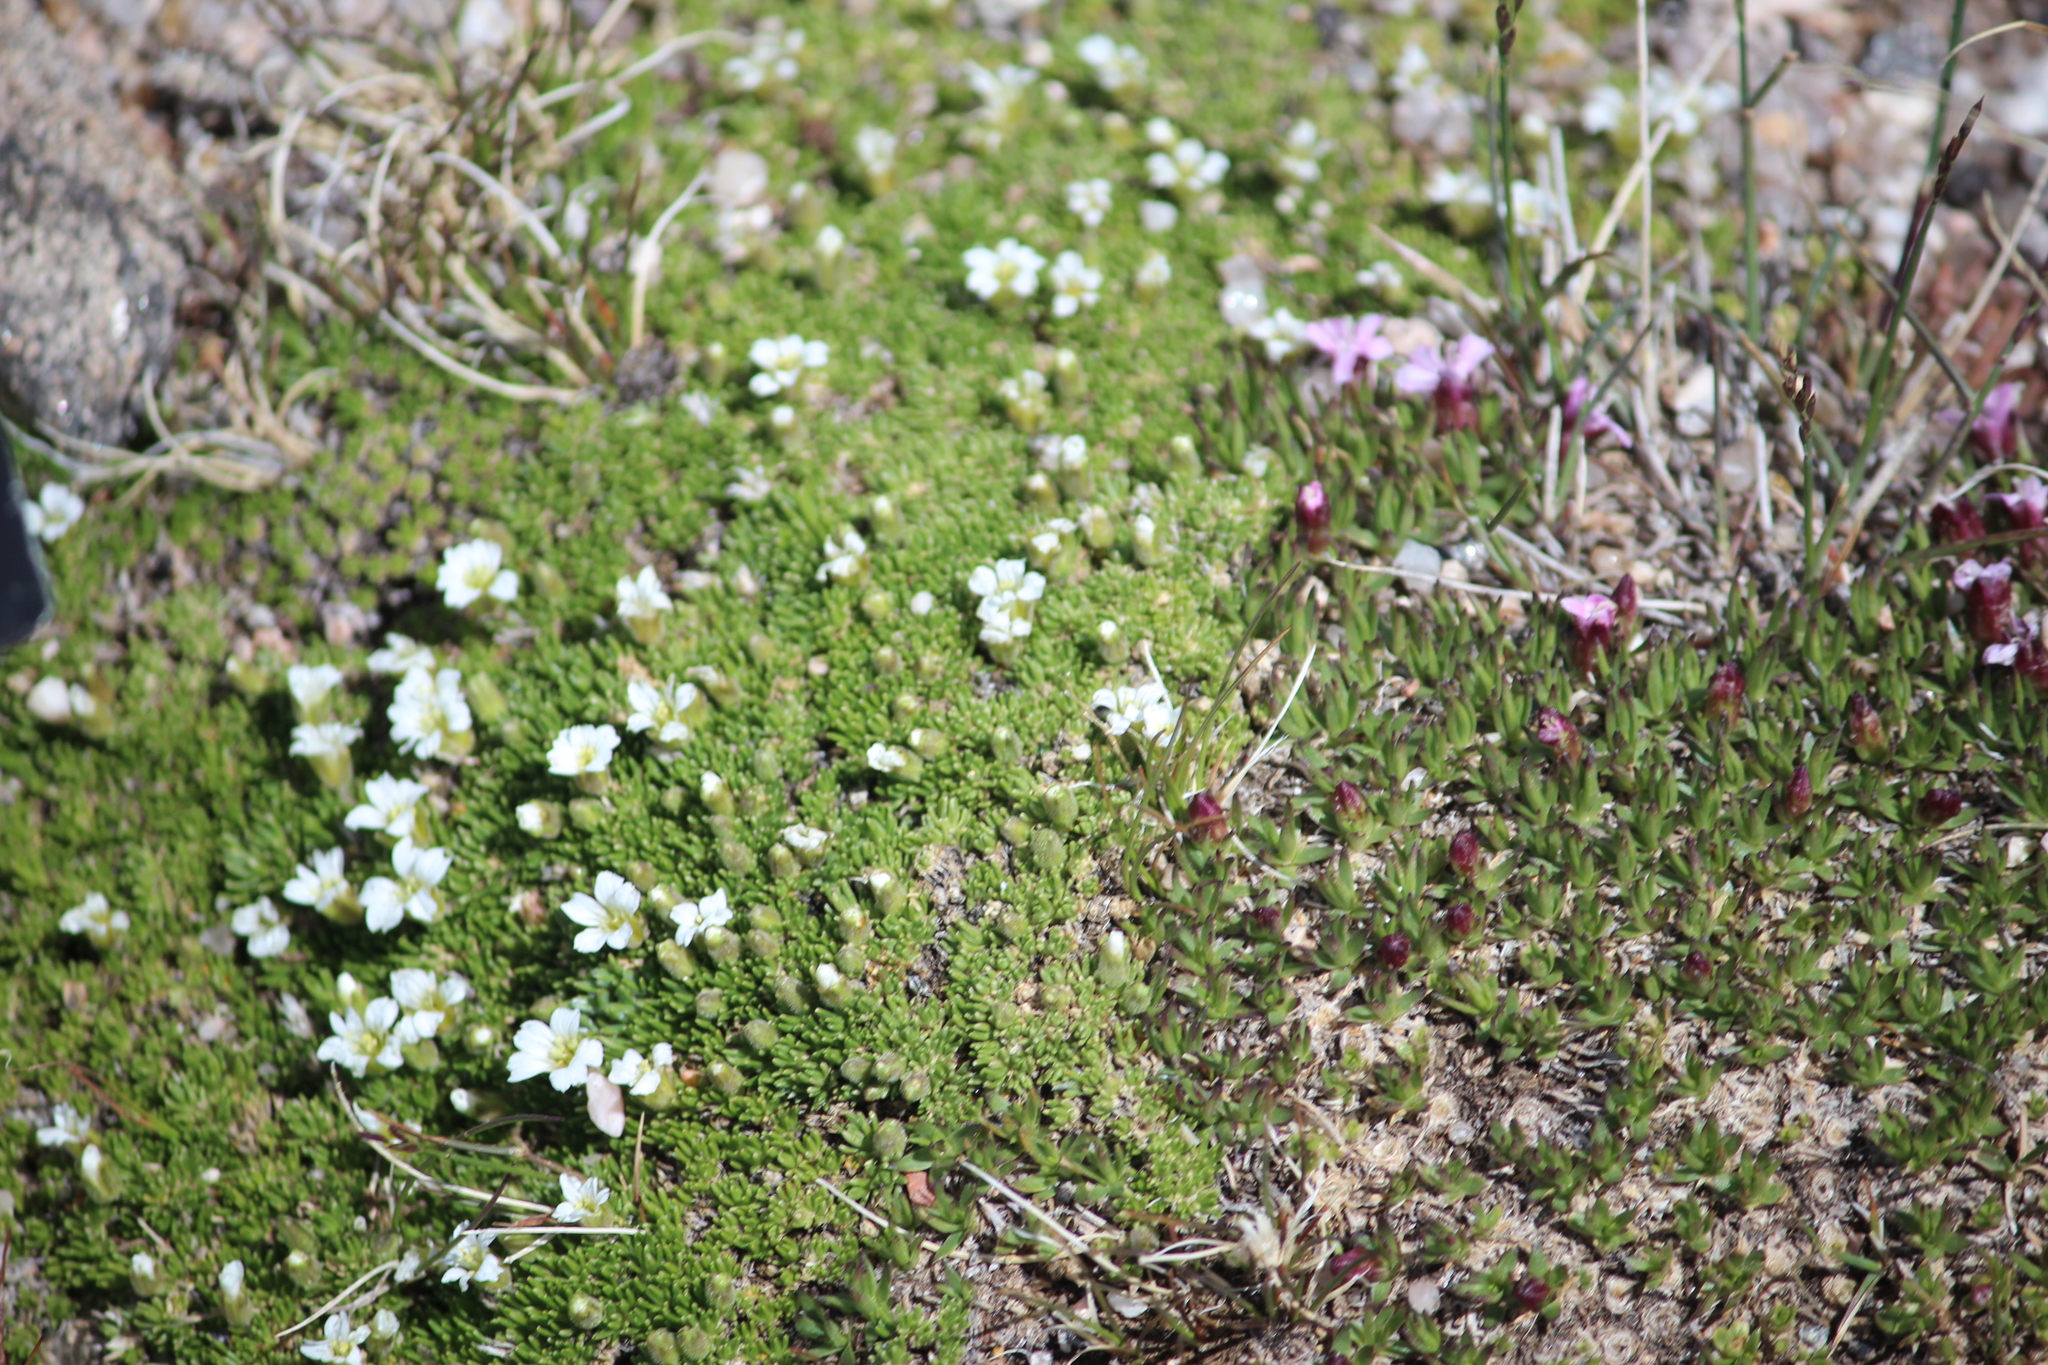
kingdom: Plantae
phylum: Tracheophyta
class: Magnoliopsida
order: Caryophyllales
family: Caryophyllaceae
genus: Cherleria
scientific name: Cherleria obtusiloba
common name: Alpine stitchwort
